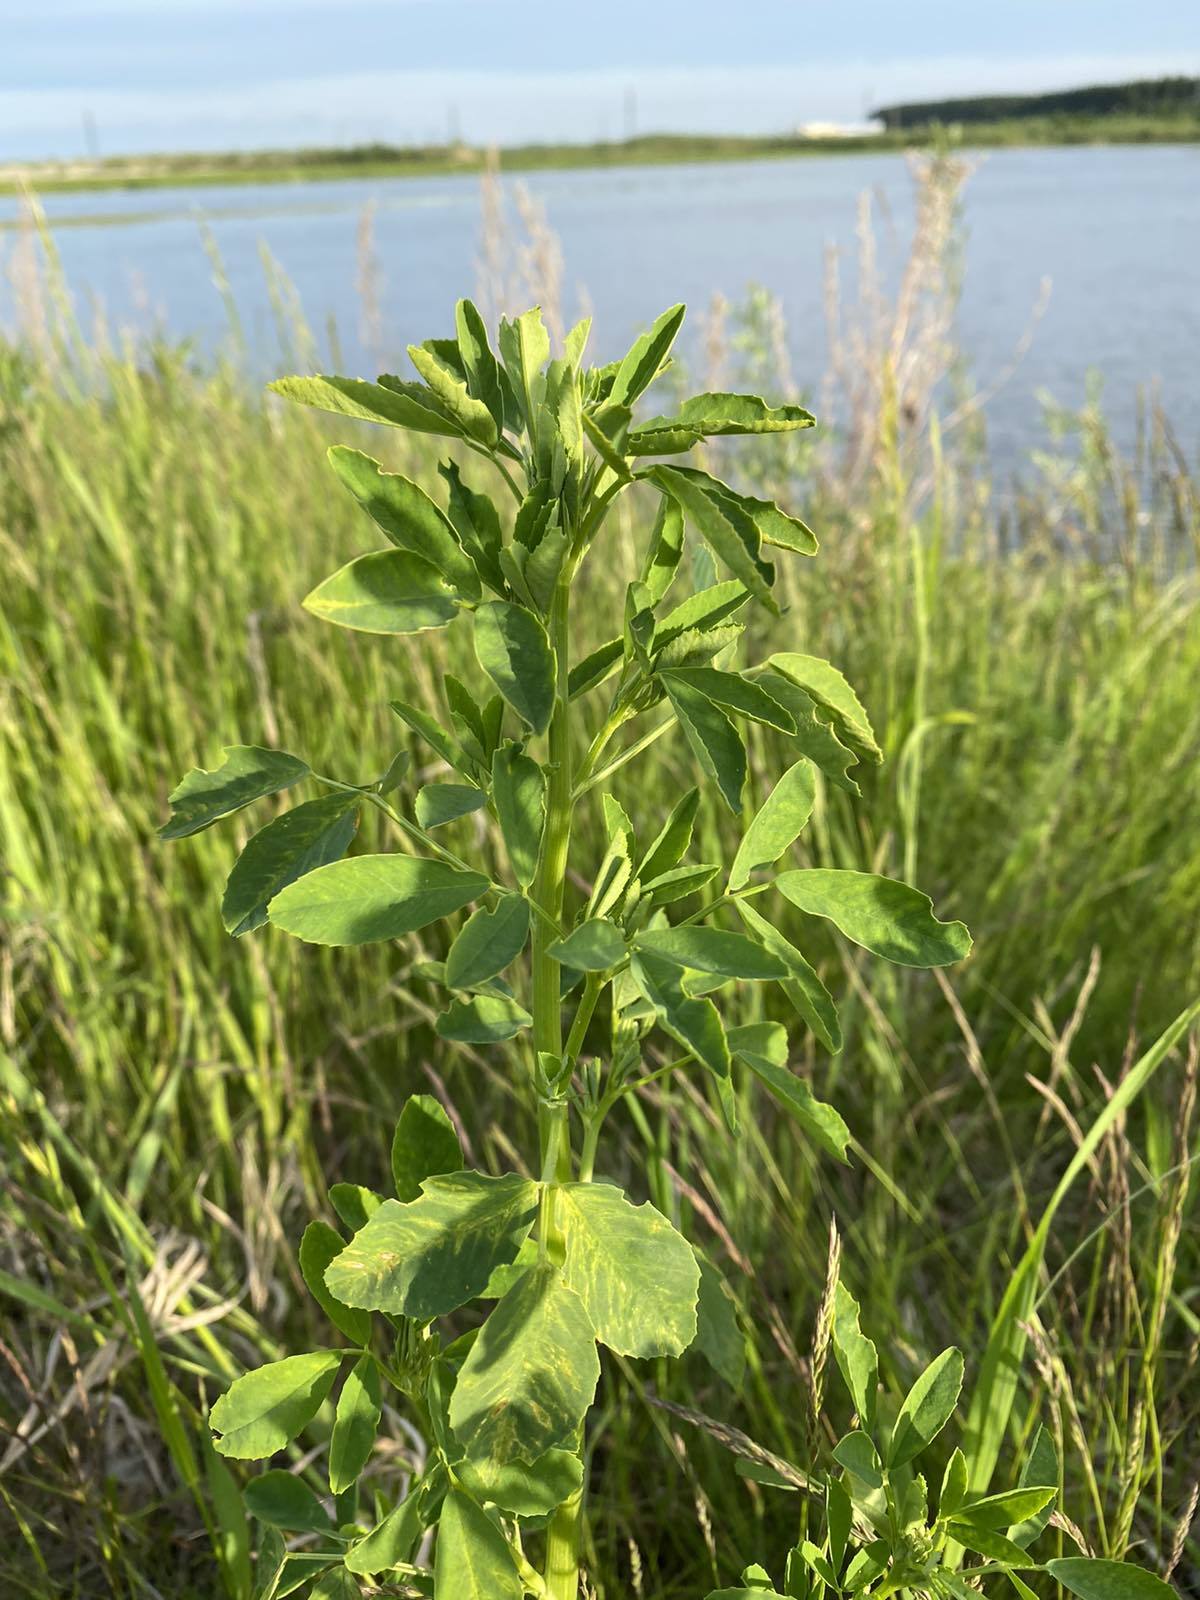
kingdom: Plantae
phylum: Tracheophyta
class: Magnoliopsida
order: Fabales
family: Fabaceae
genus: Melilotus
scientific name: Melilotus albus
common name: White melilot
